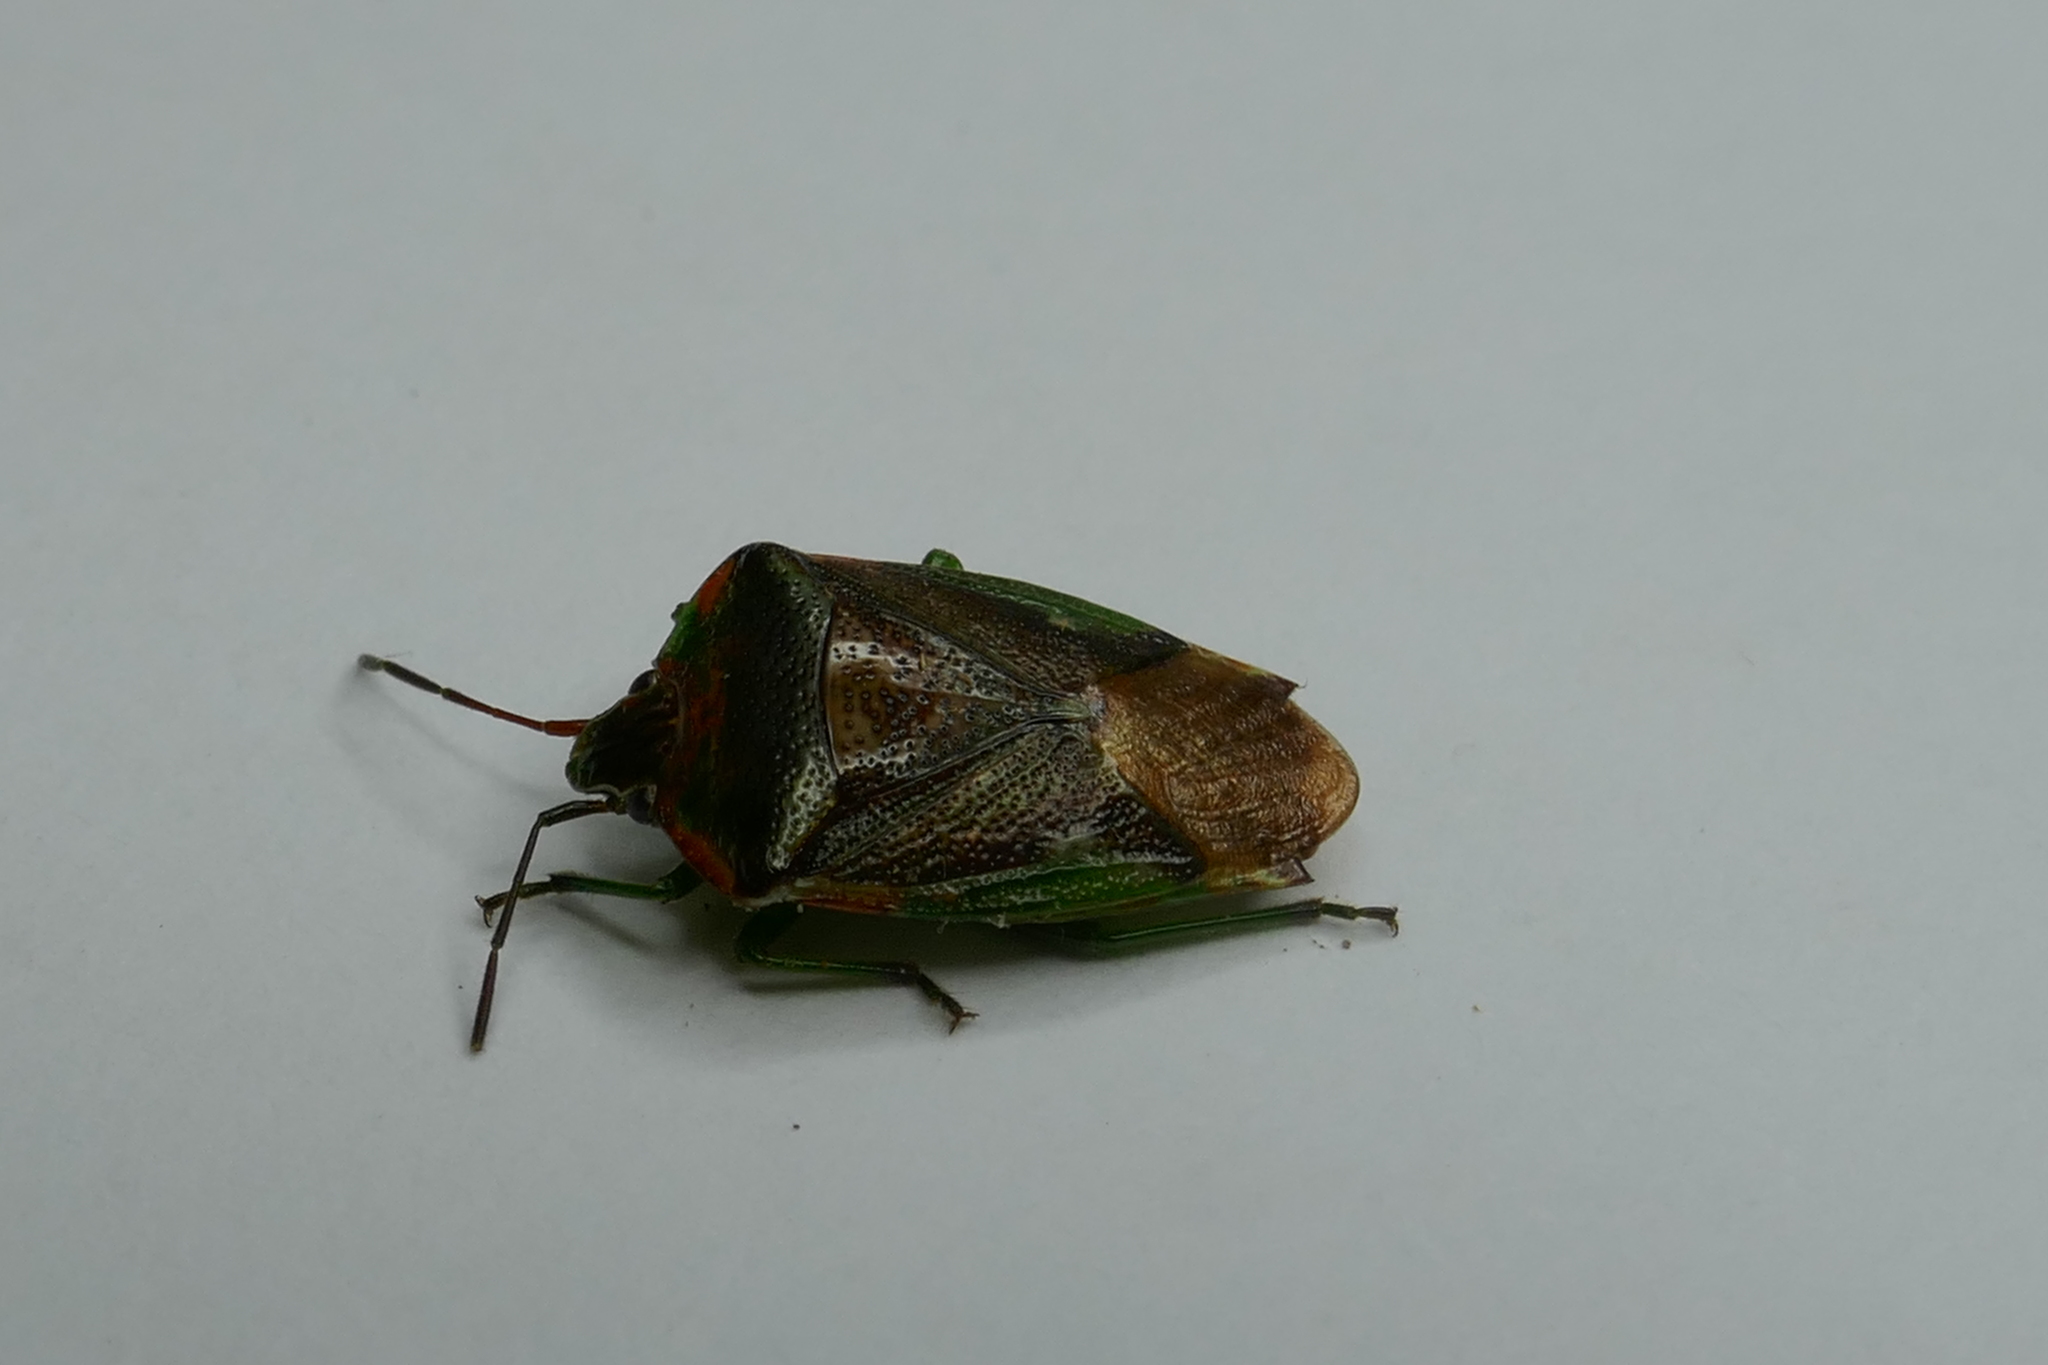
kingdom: Animalia
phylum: Arthropoda
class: Insecta
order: Hemiptera
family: Acanthosomatidae
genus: Oncacontias
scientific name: Oncacontias vittatus
